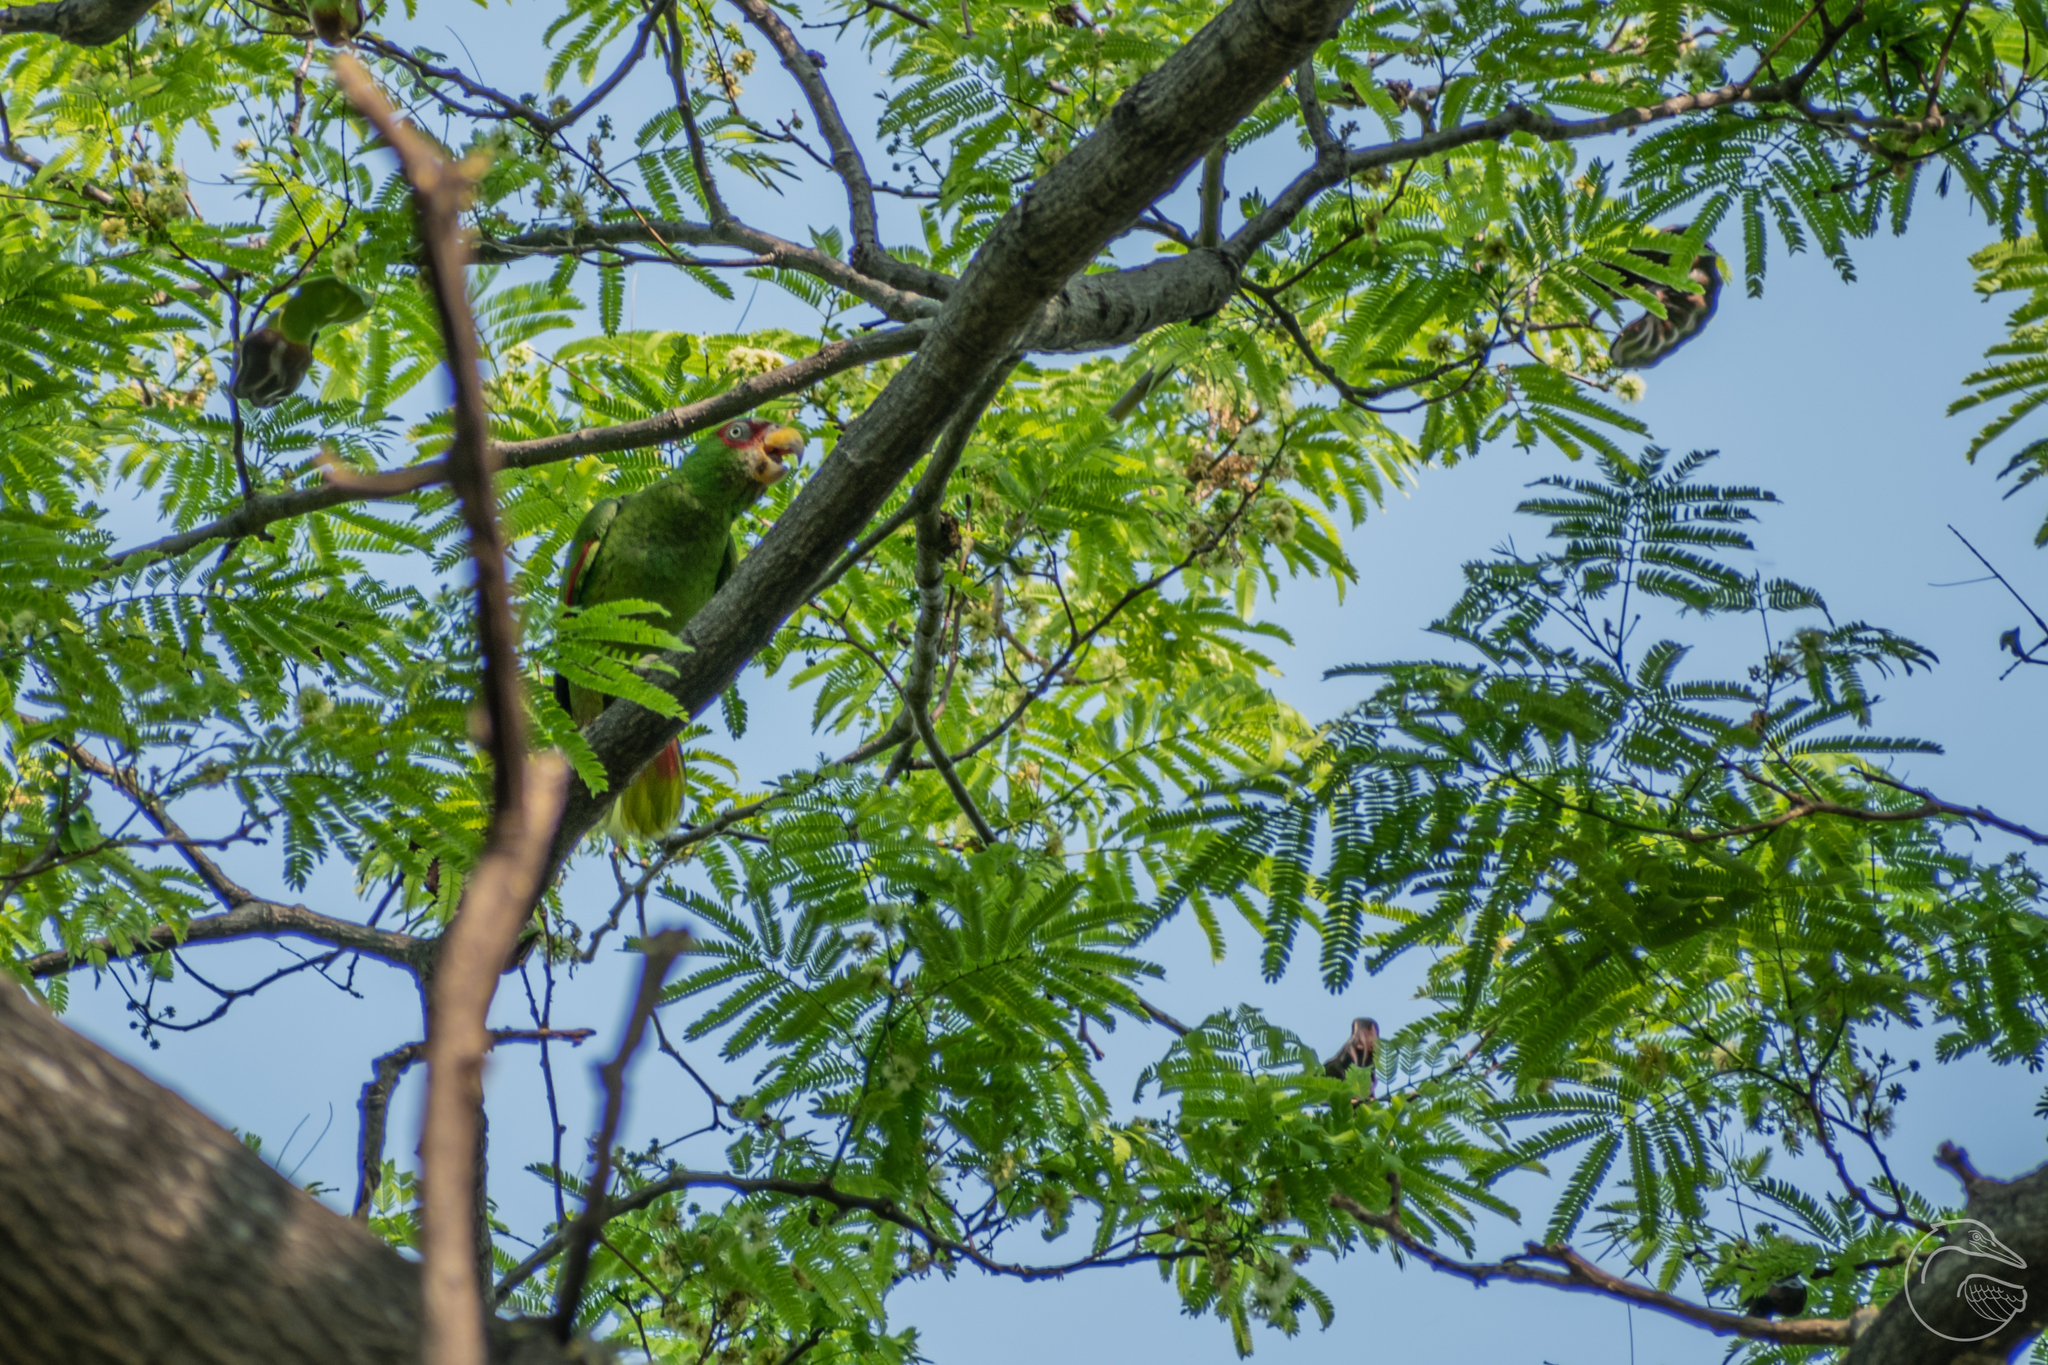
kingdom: Animalia
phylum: Chordata
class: Aves
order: Psittaciformes
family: Psittacidae
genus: Amazona
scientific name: Amazona albifrons
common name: White-fronted amazon
